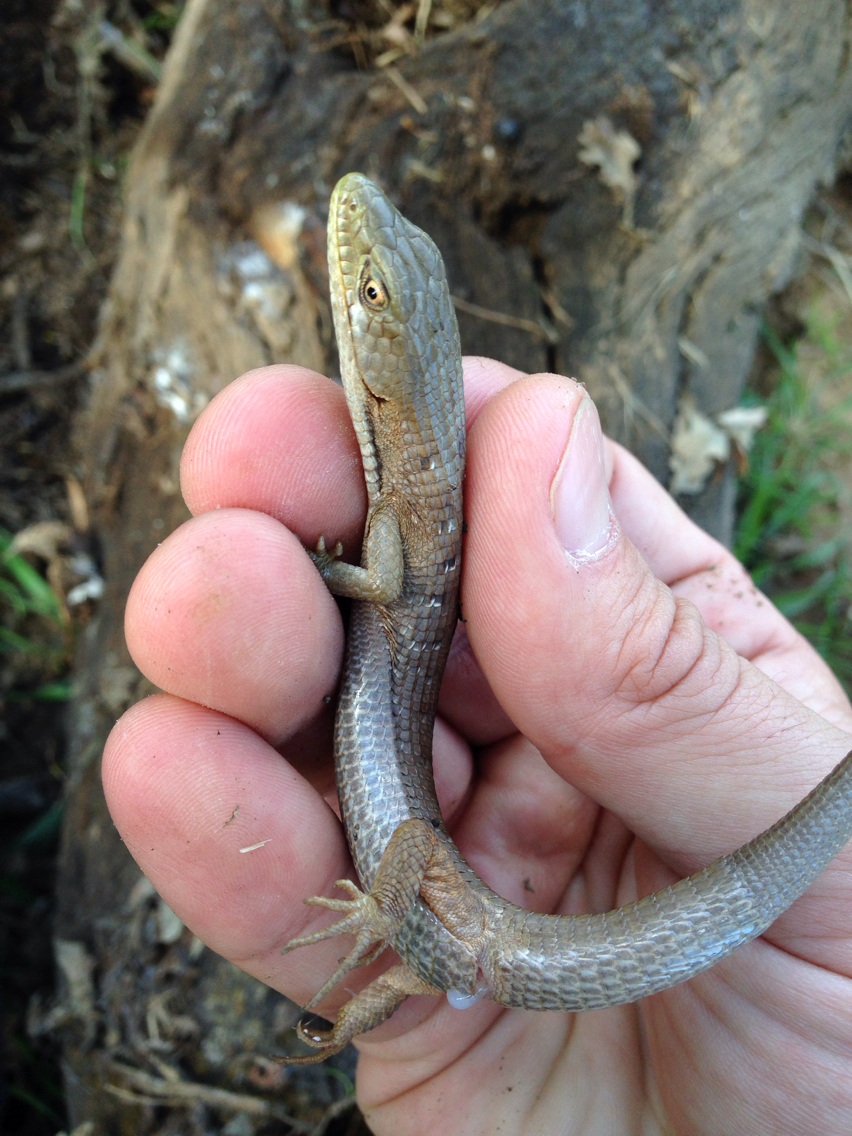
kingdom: Animalia
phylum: Chordata
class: Squamata
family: Anguidae
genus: Elgaria
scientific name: Elgaria multicarinata
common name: Southern alligator lizard
